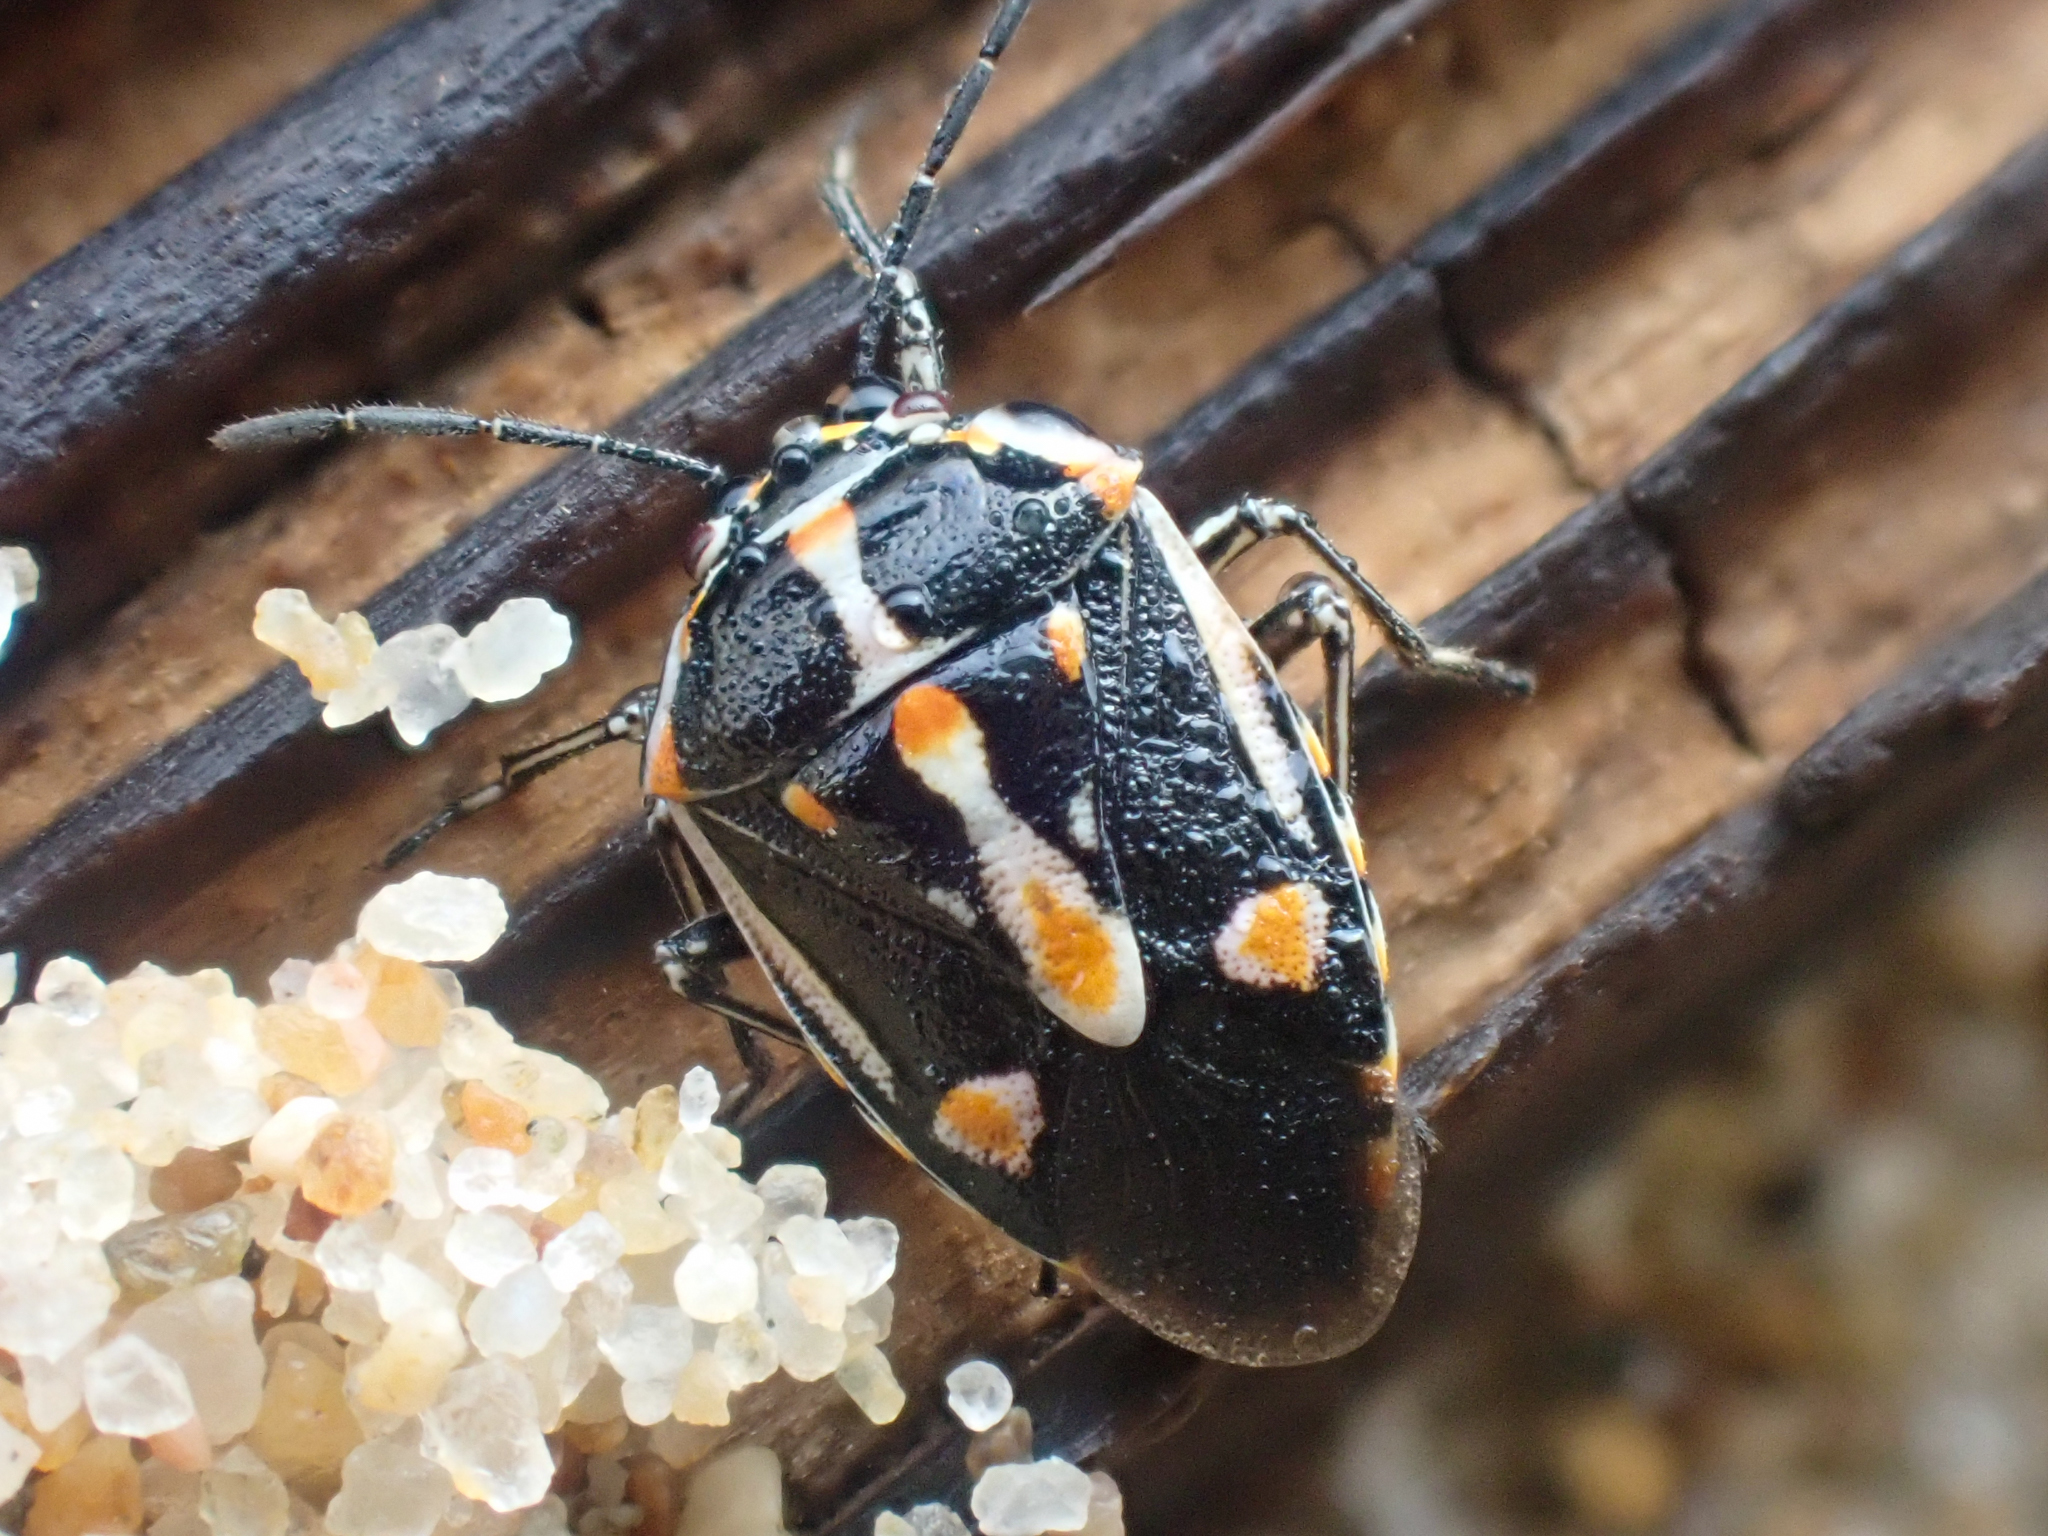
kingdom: Animalia
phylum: Arthropoda
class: Insecta
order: Hemiptera
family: Pentatomidae
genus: Bagrada
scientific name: Bagrada hilaris
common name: Bagrada bug
